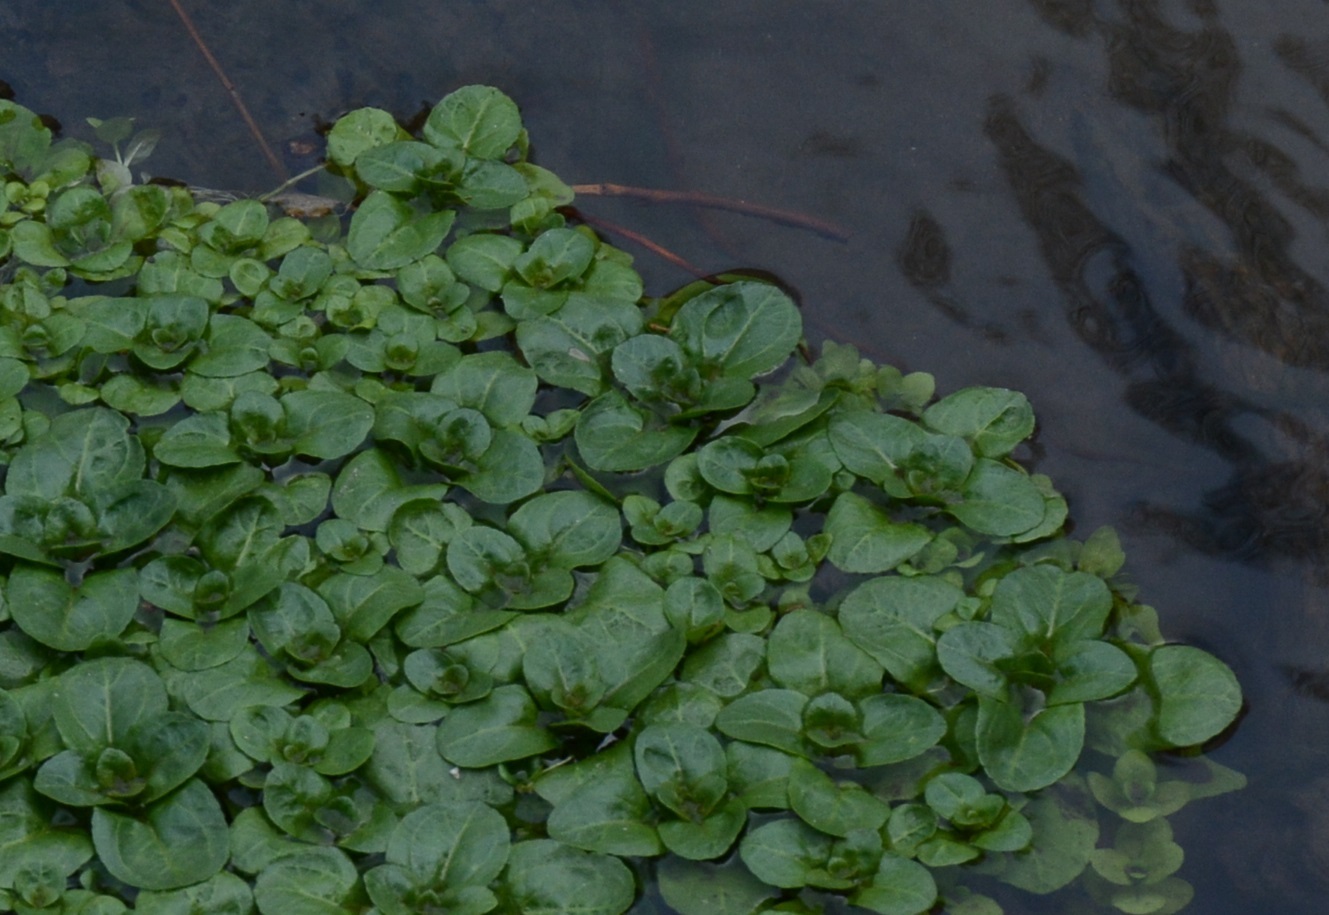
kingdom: Plantae
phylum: Tracheophyta
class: Magnoliopsida
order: Lamiales
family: Plantaginaceae
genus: Veronica
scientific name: Veronica beccabunga
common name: Brooklime
